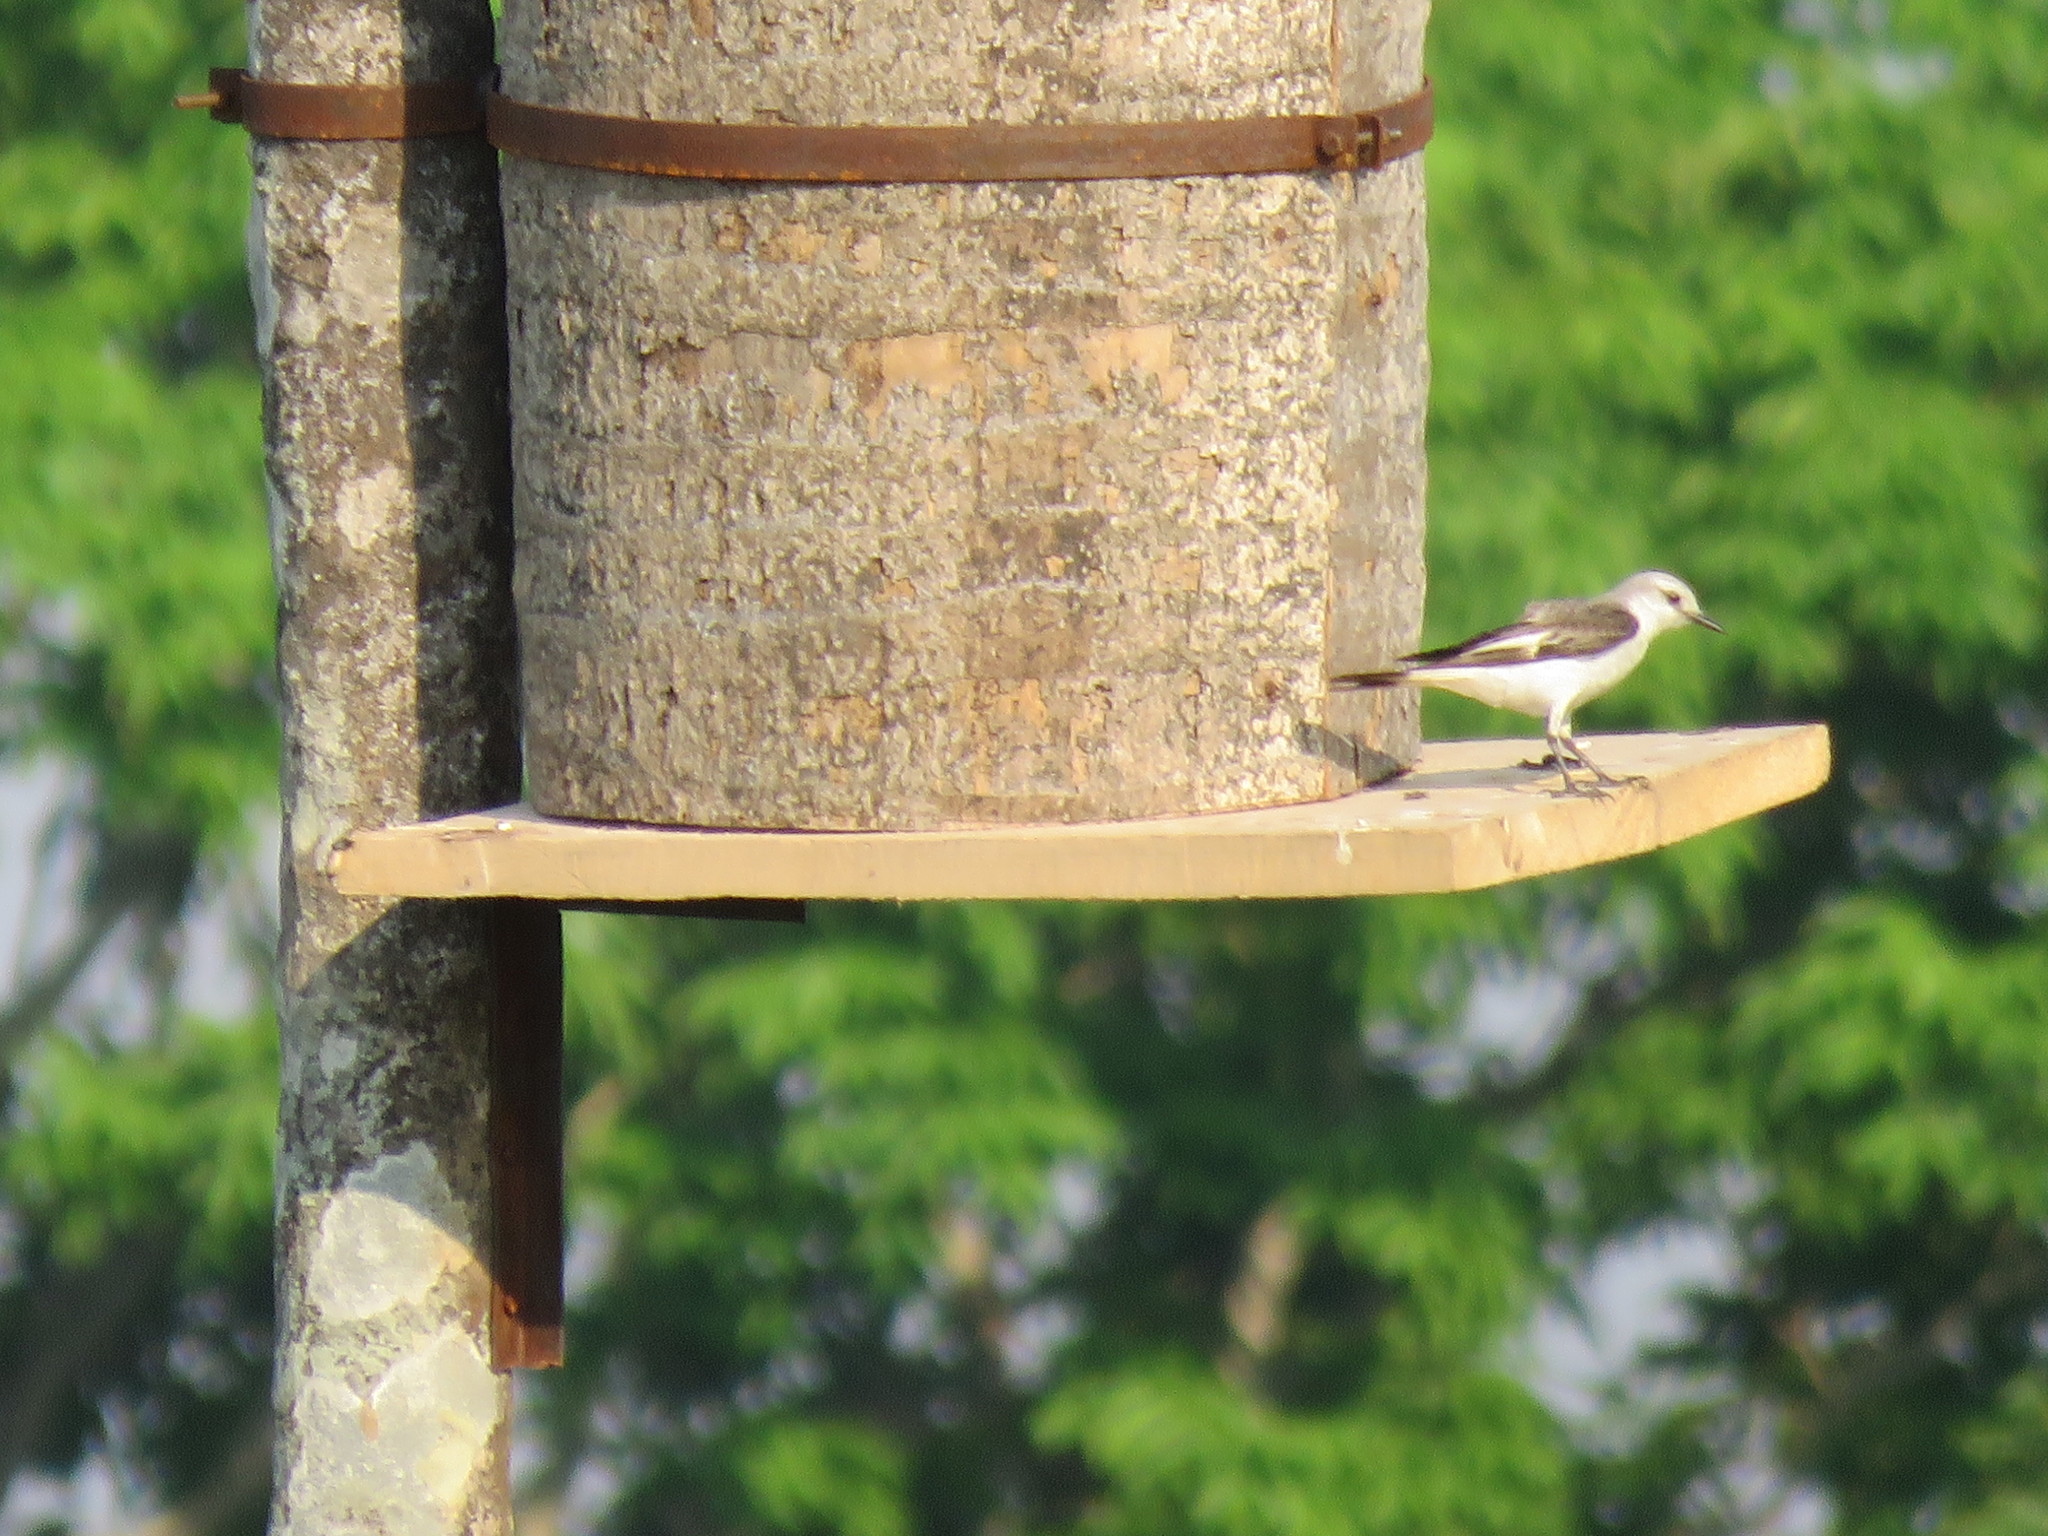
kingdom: Animalia
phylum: Chordata
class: Aves
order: Passeriformes
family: Tyrannidae
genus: Xolmis
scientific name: Xolmis velatus
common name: White-rumped monjita
